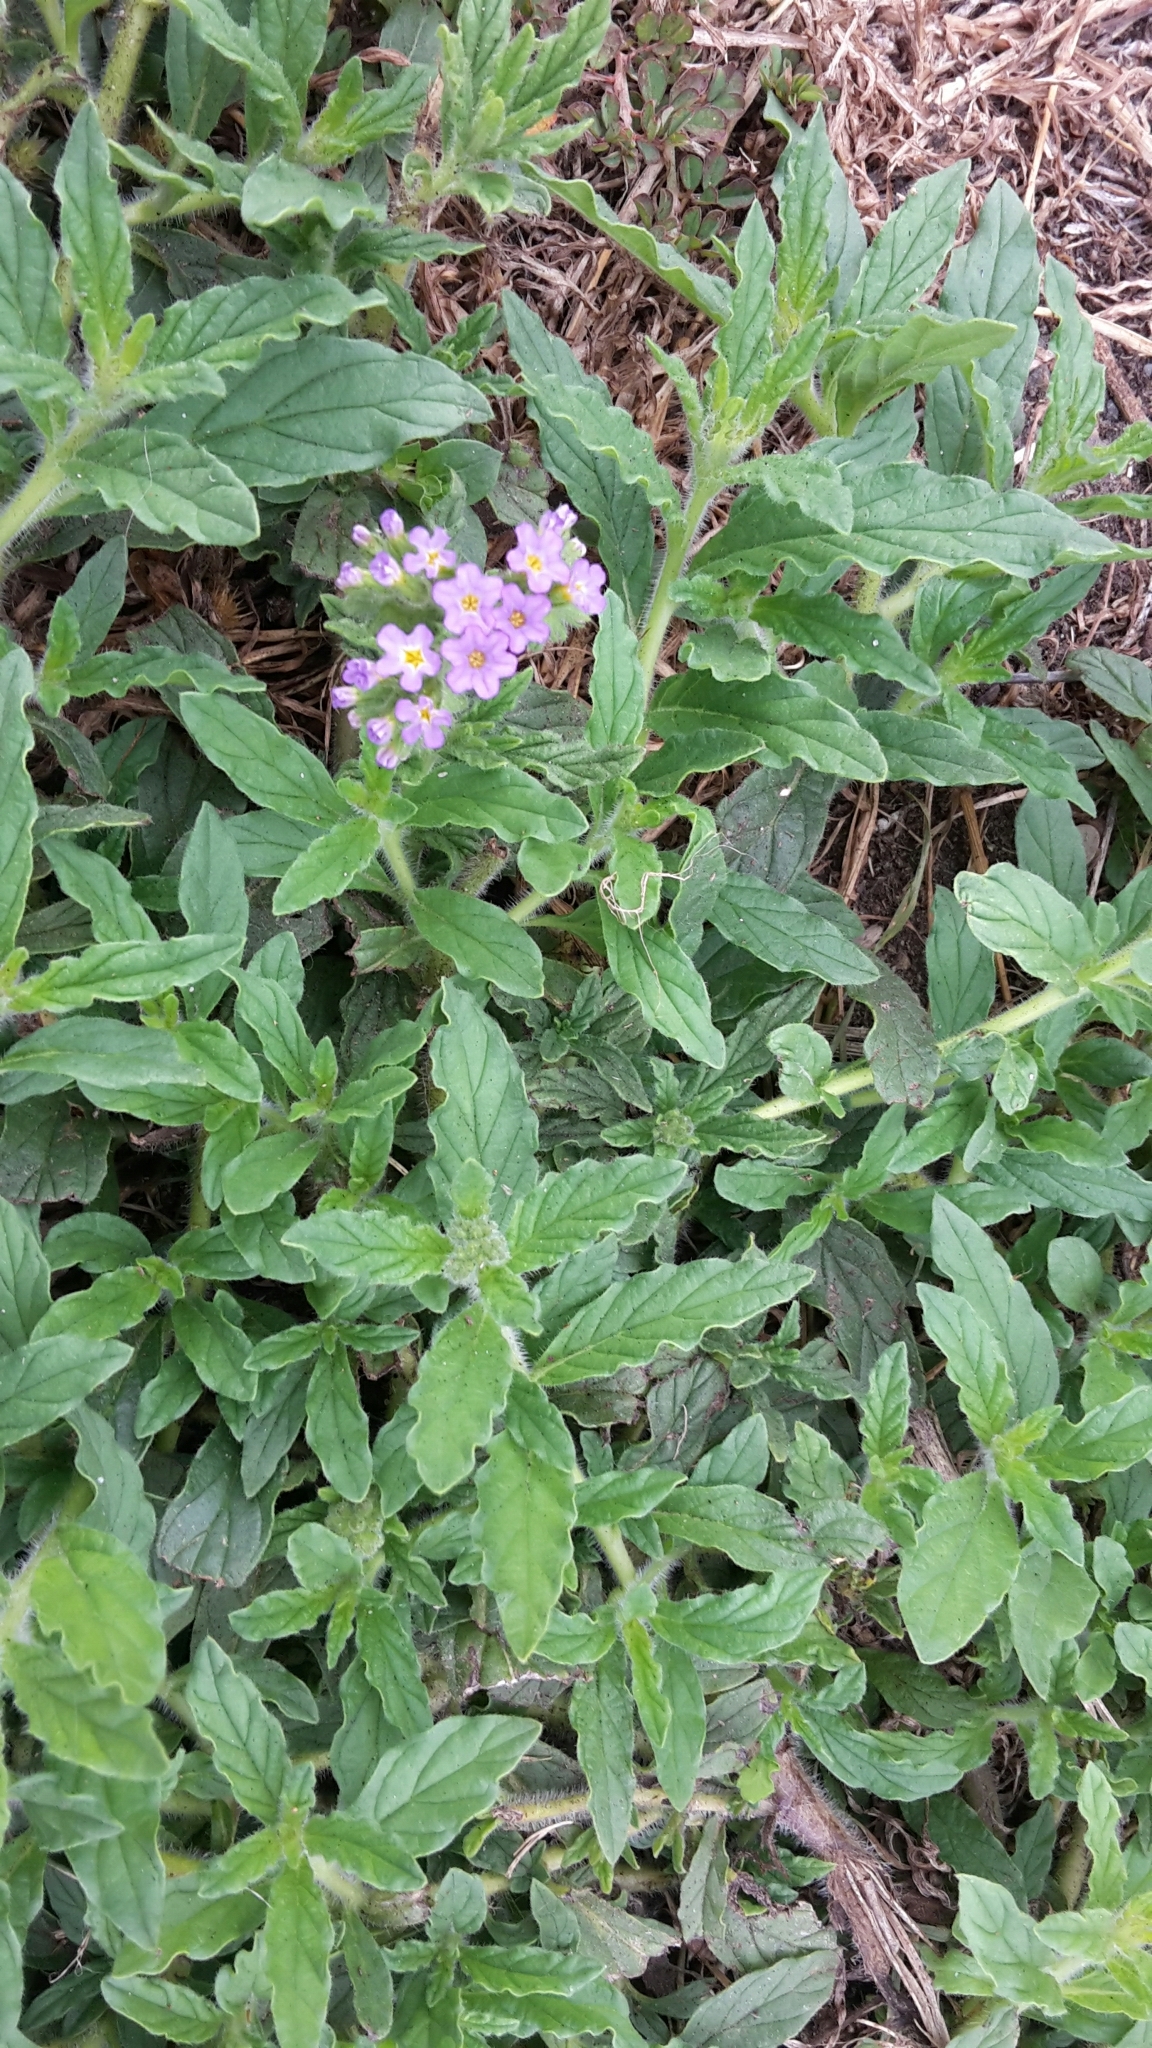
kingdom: Plantae
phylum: Tracheophyta
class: Magnoliopsida
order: Boraginales
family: Heliotropiaceae
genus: Heliotropium
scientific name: Heliotropium amplexicaule
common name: Clasping heliotrope
